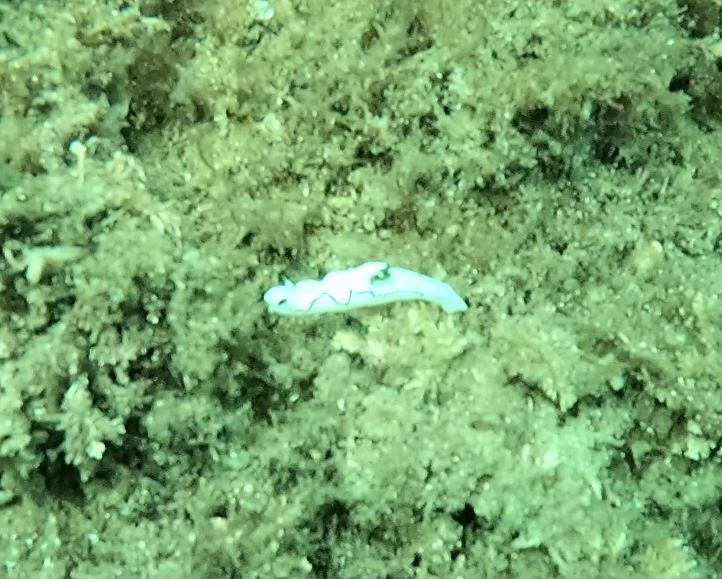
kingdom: Animalia
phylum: Mollusca
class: Gastropoda
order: Nudibranchia
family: Chromodorididae
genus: Doriprismatica
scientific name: Doriprismatica atromarginata
